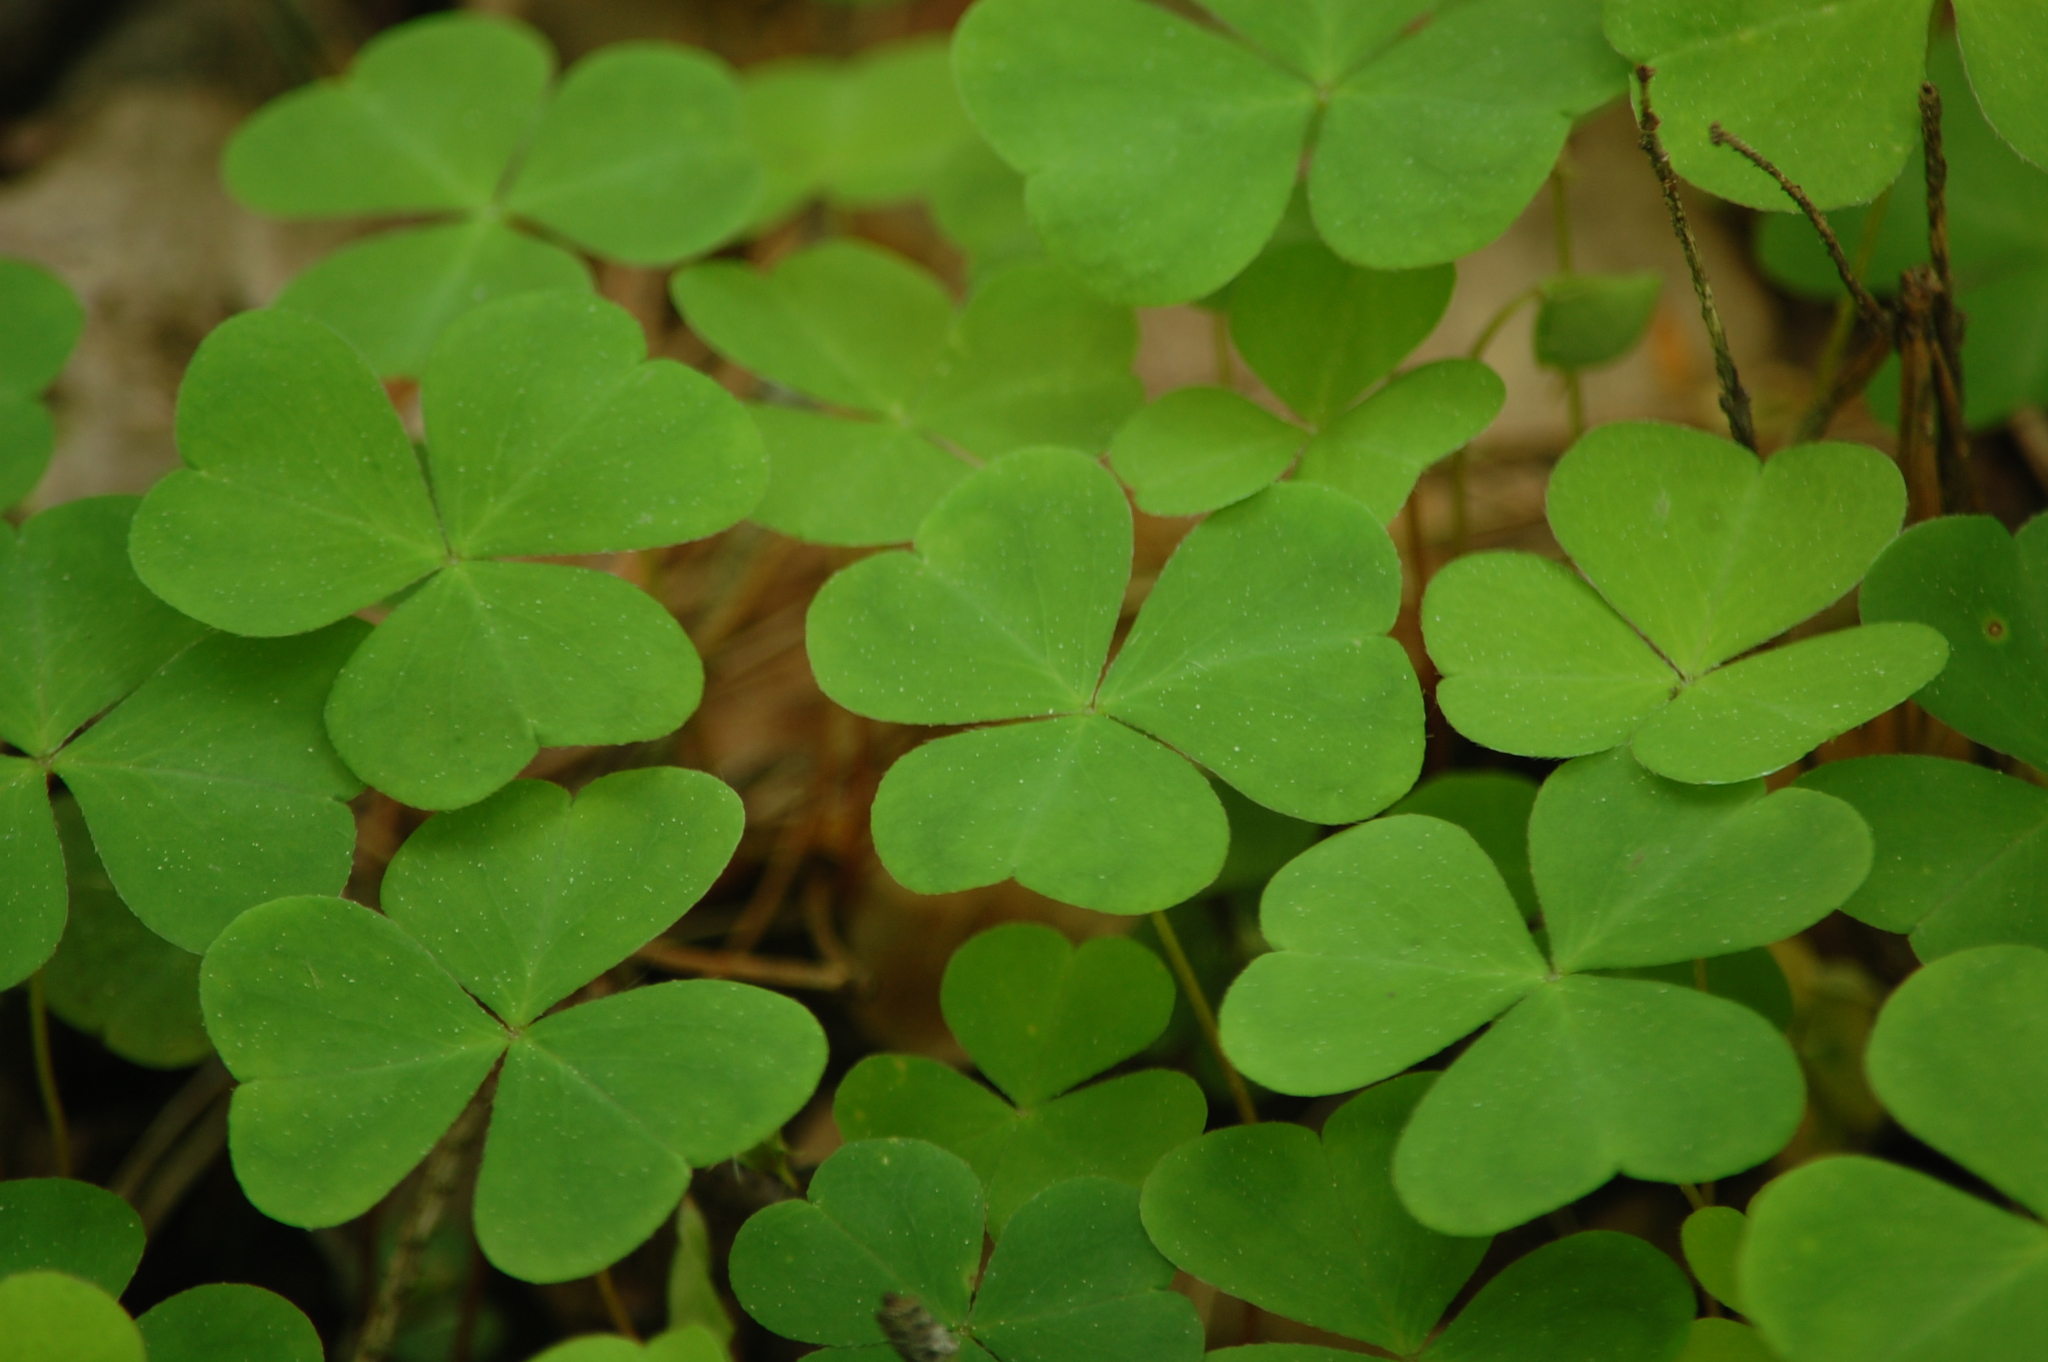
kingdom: Plantae
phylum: Tracheophyta
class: Magnoliopsida
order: Oxalidales
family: Oxalidaceae
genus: Oxalis
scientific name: Oxalis acetosella
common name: Wood-sorrel
